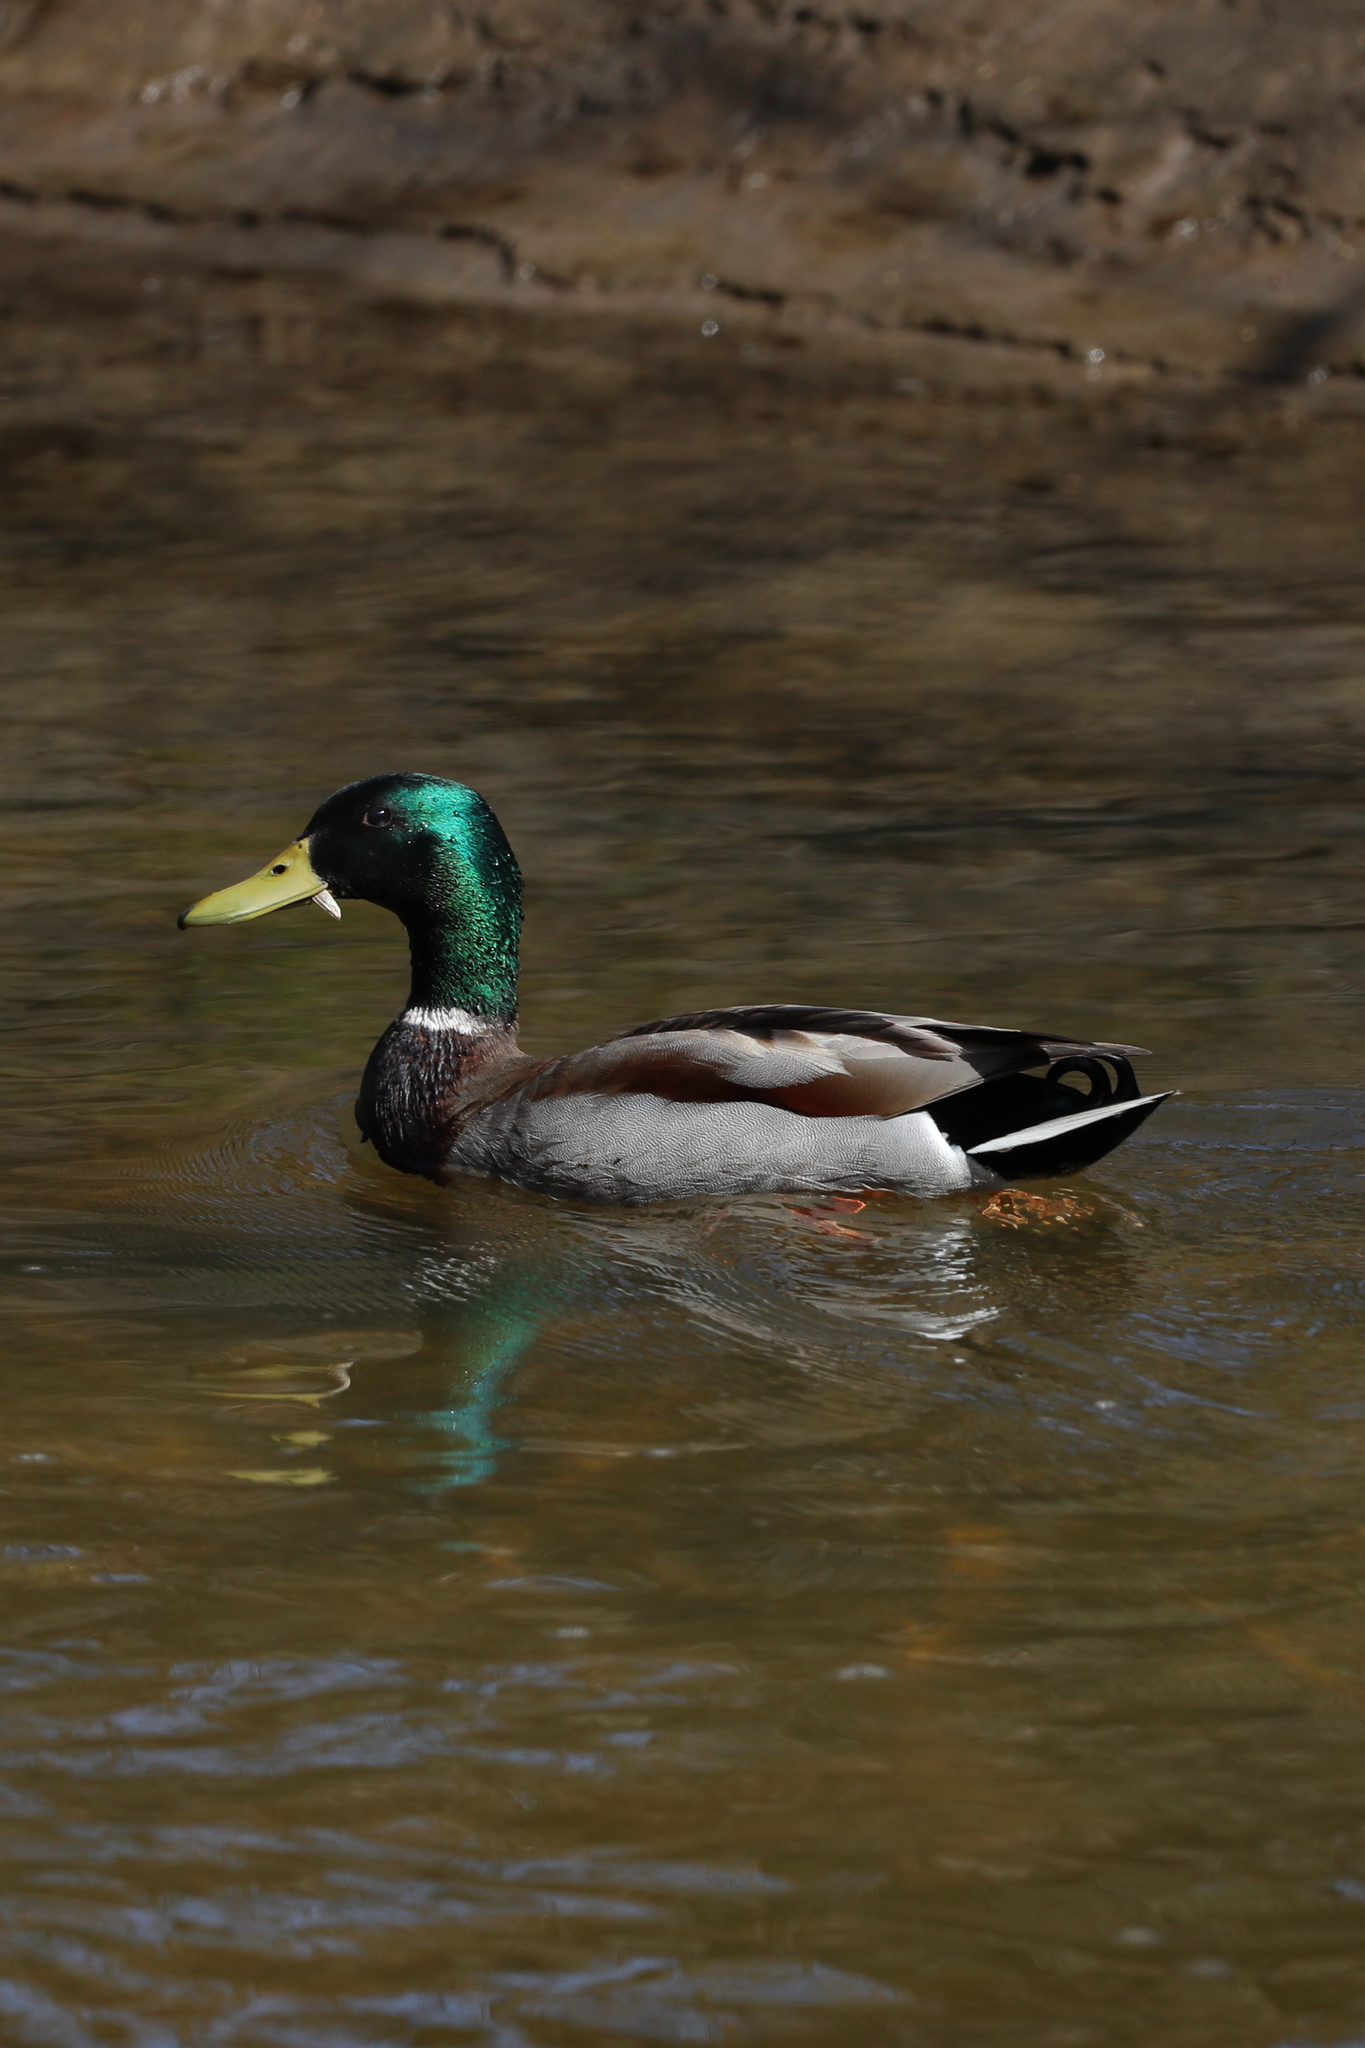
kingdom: Animalia
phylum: Chordata
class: Aves
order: Anseriformes
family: Anatidae
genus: Anas
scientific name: Anas platyrhynchos
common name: Mallard
